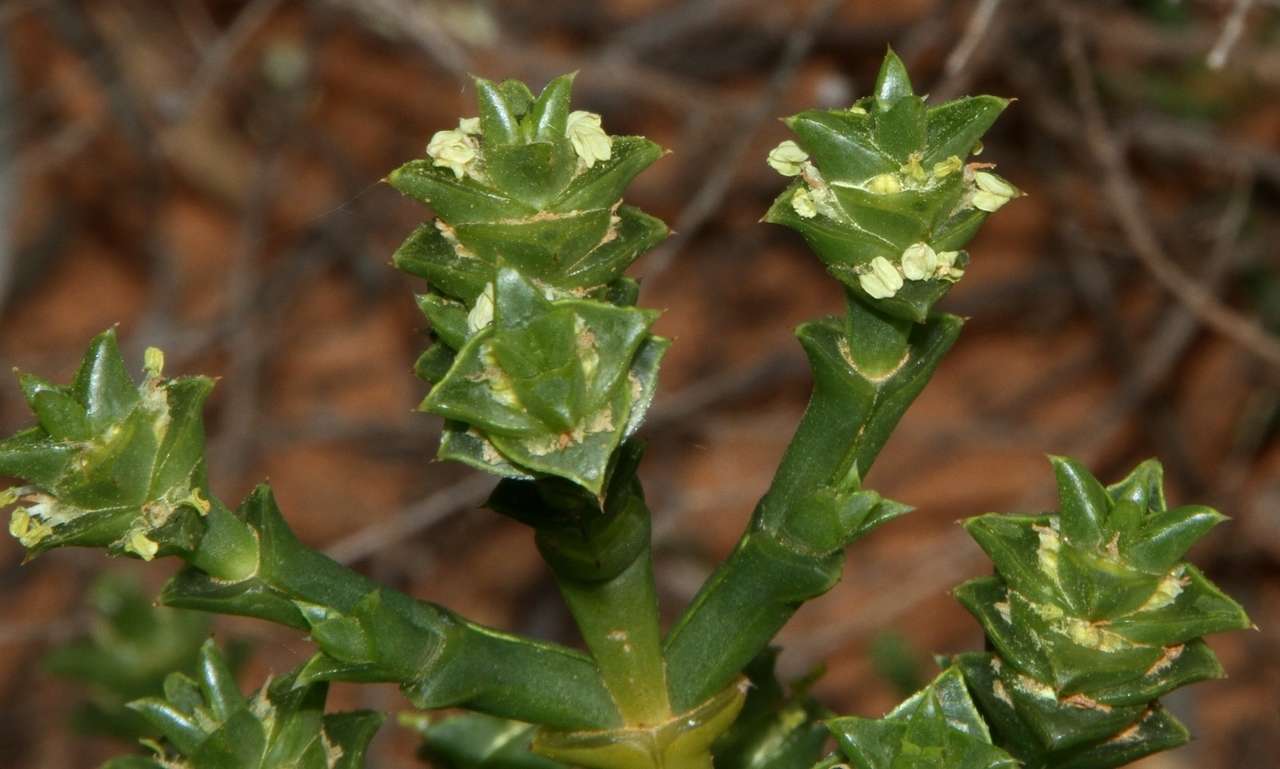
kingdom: Plantae
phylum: Tracheophyta
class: Magnoliopsida
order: Caryophyllales
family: Amaranthaceae
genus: Tecticornia
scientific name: Tecticornia triandra
